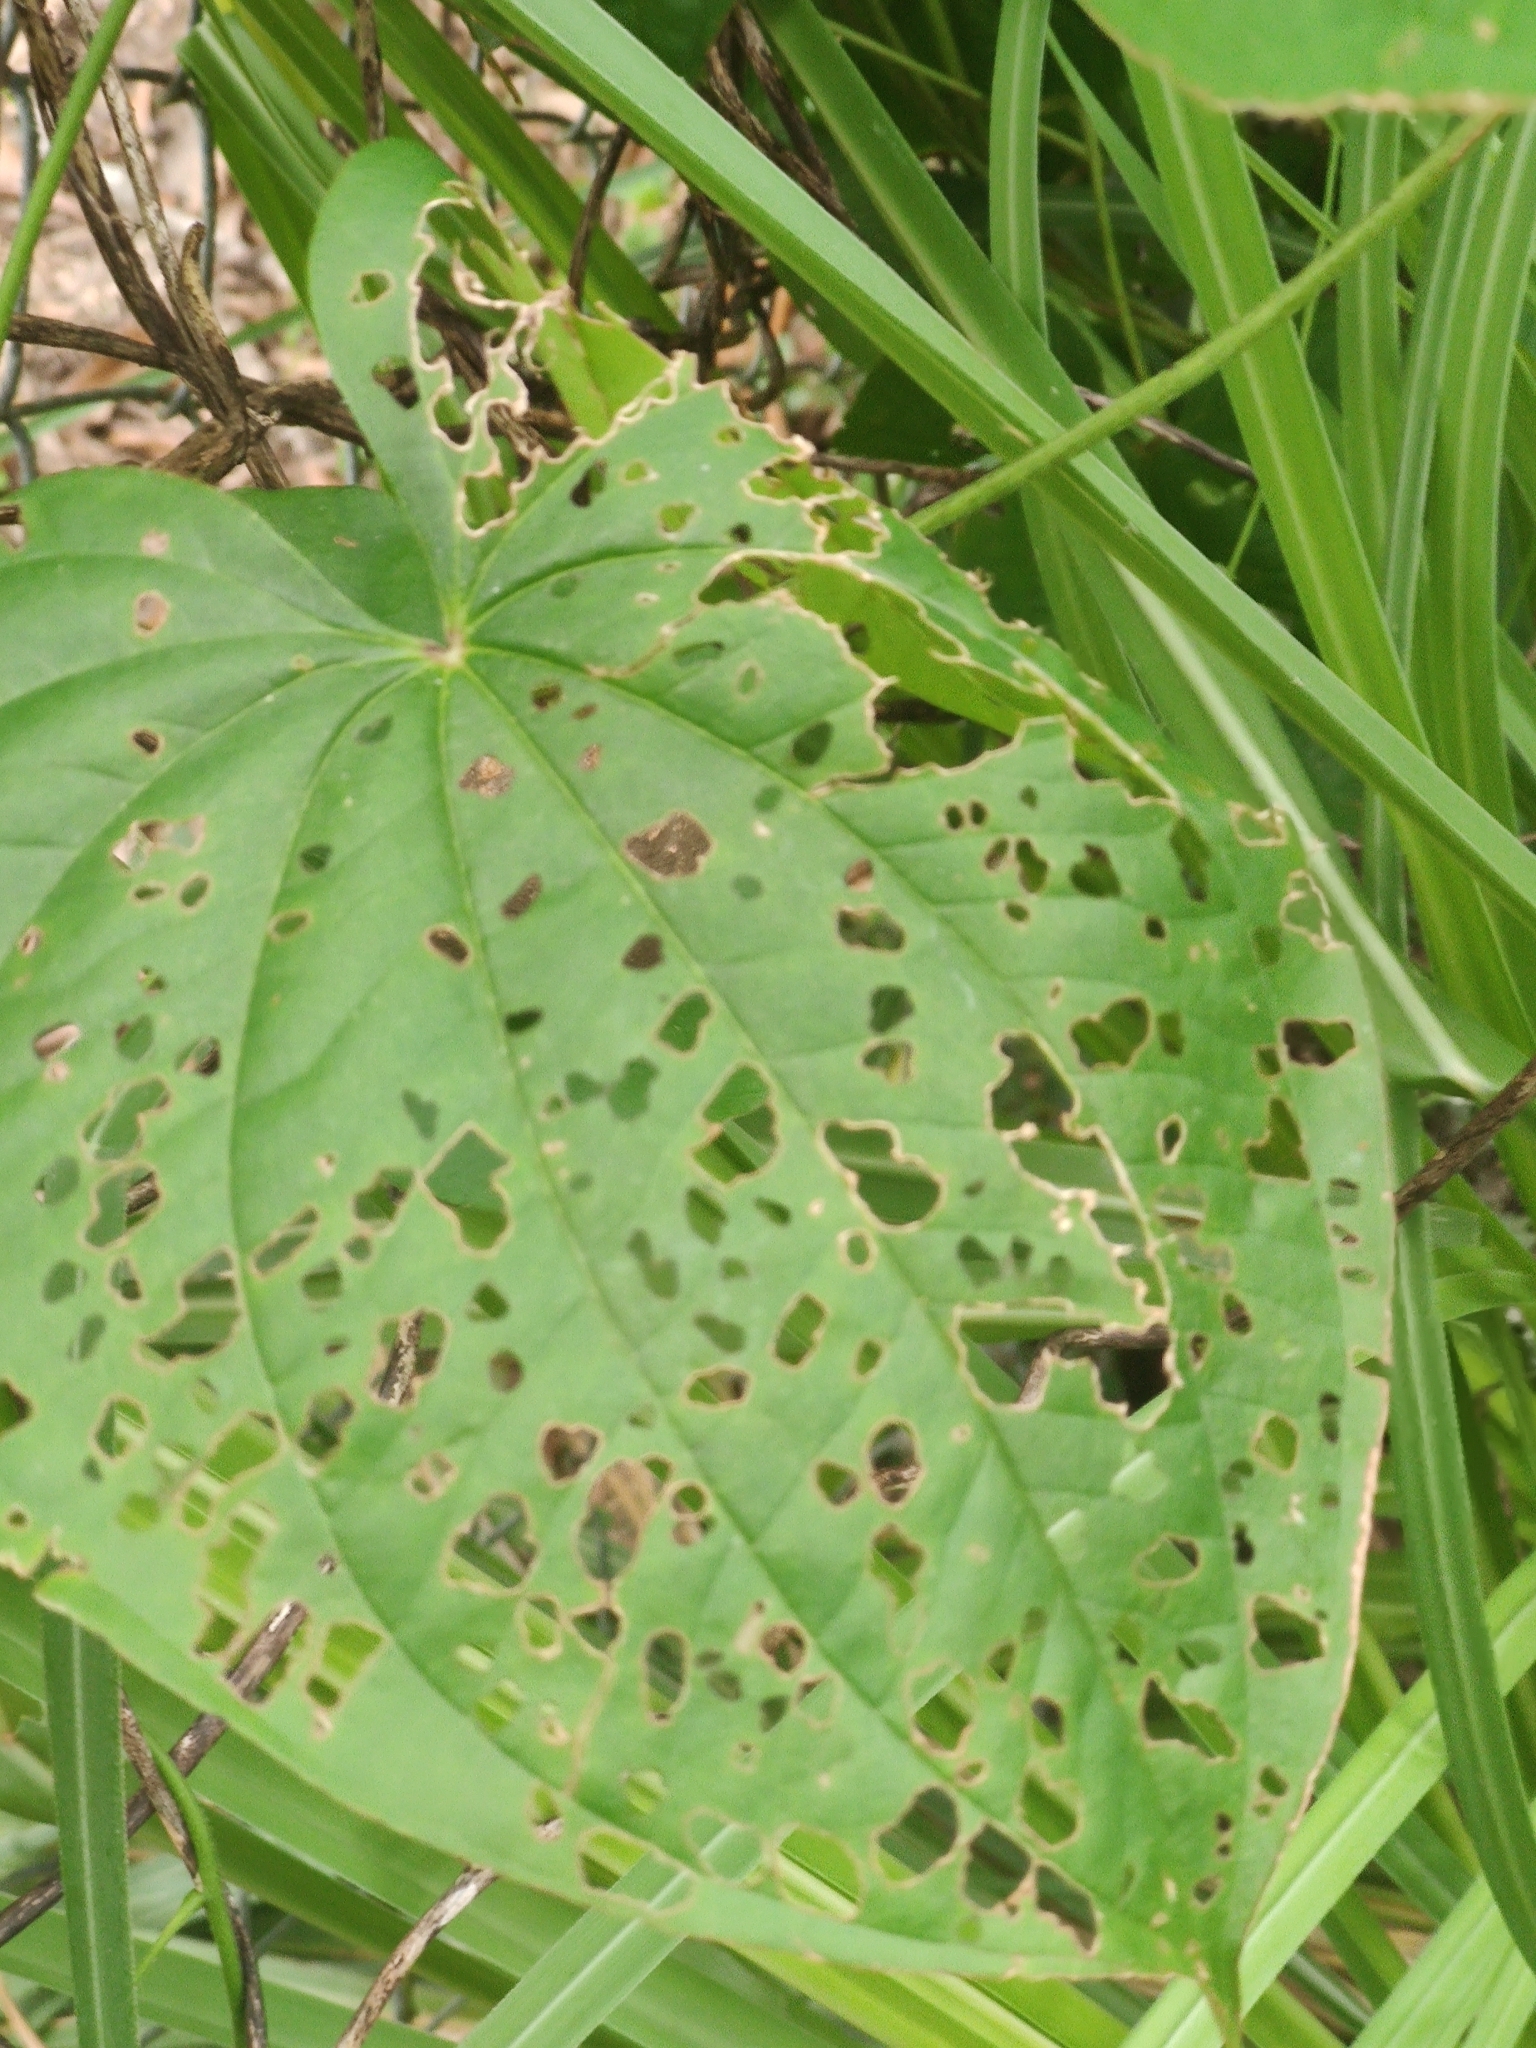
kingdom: Animalia
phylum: Arthropoda
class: Insecta
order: Coleoptera
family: Chrysomelidae
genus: Lilioceris
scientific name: Lilioceris cheni
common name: Leaf beetle
